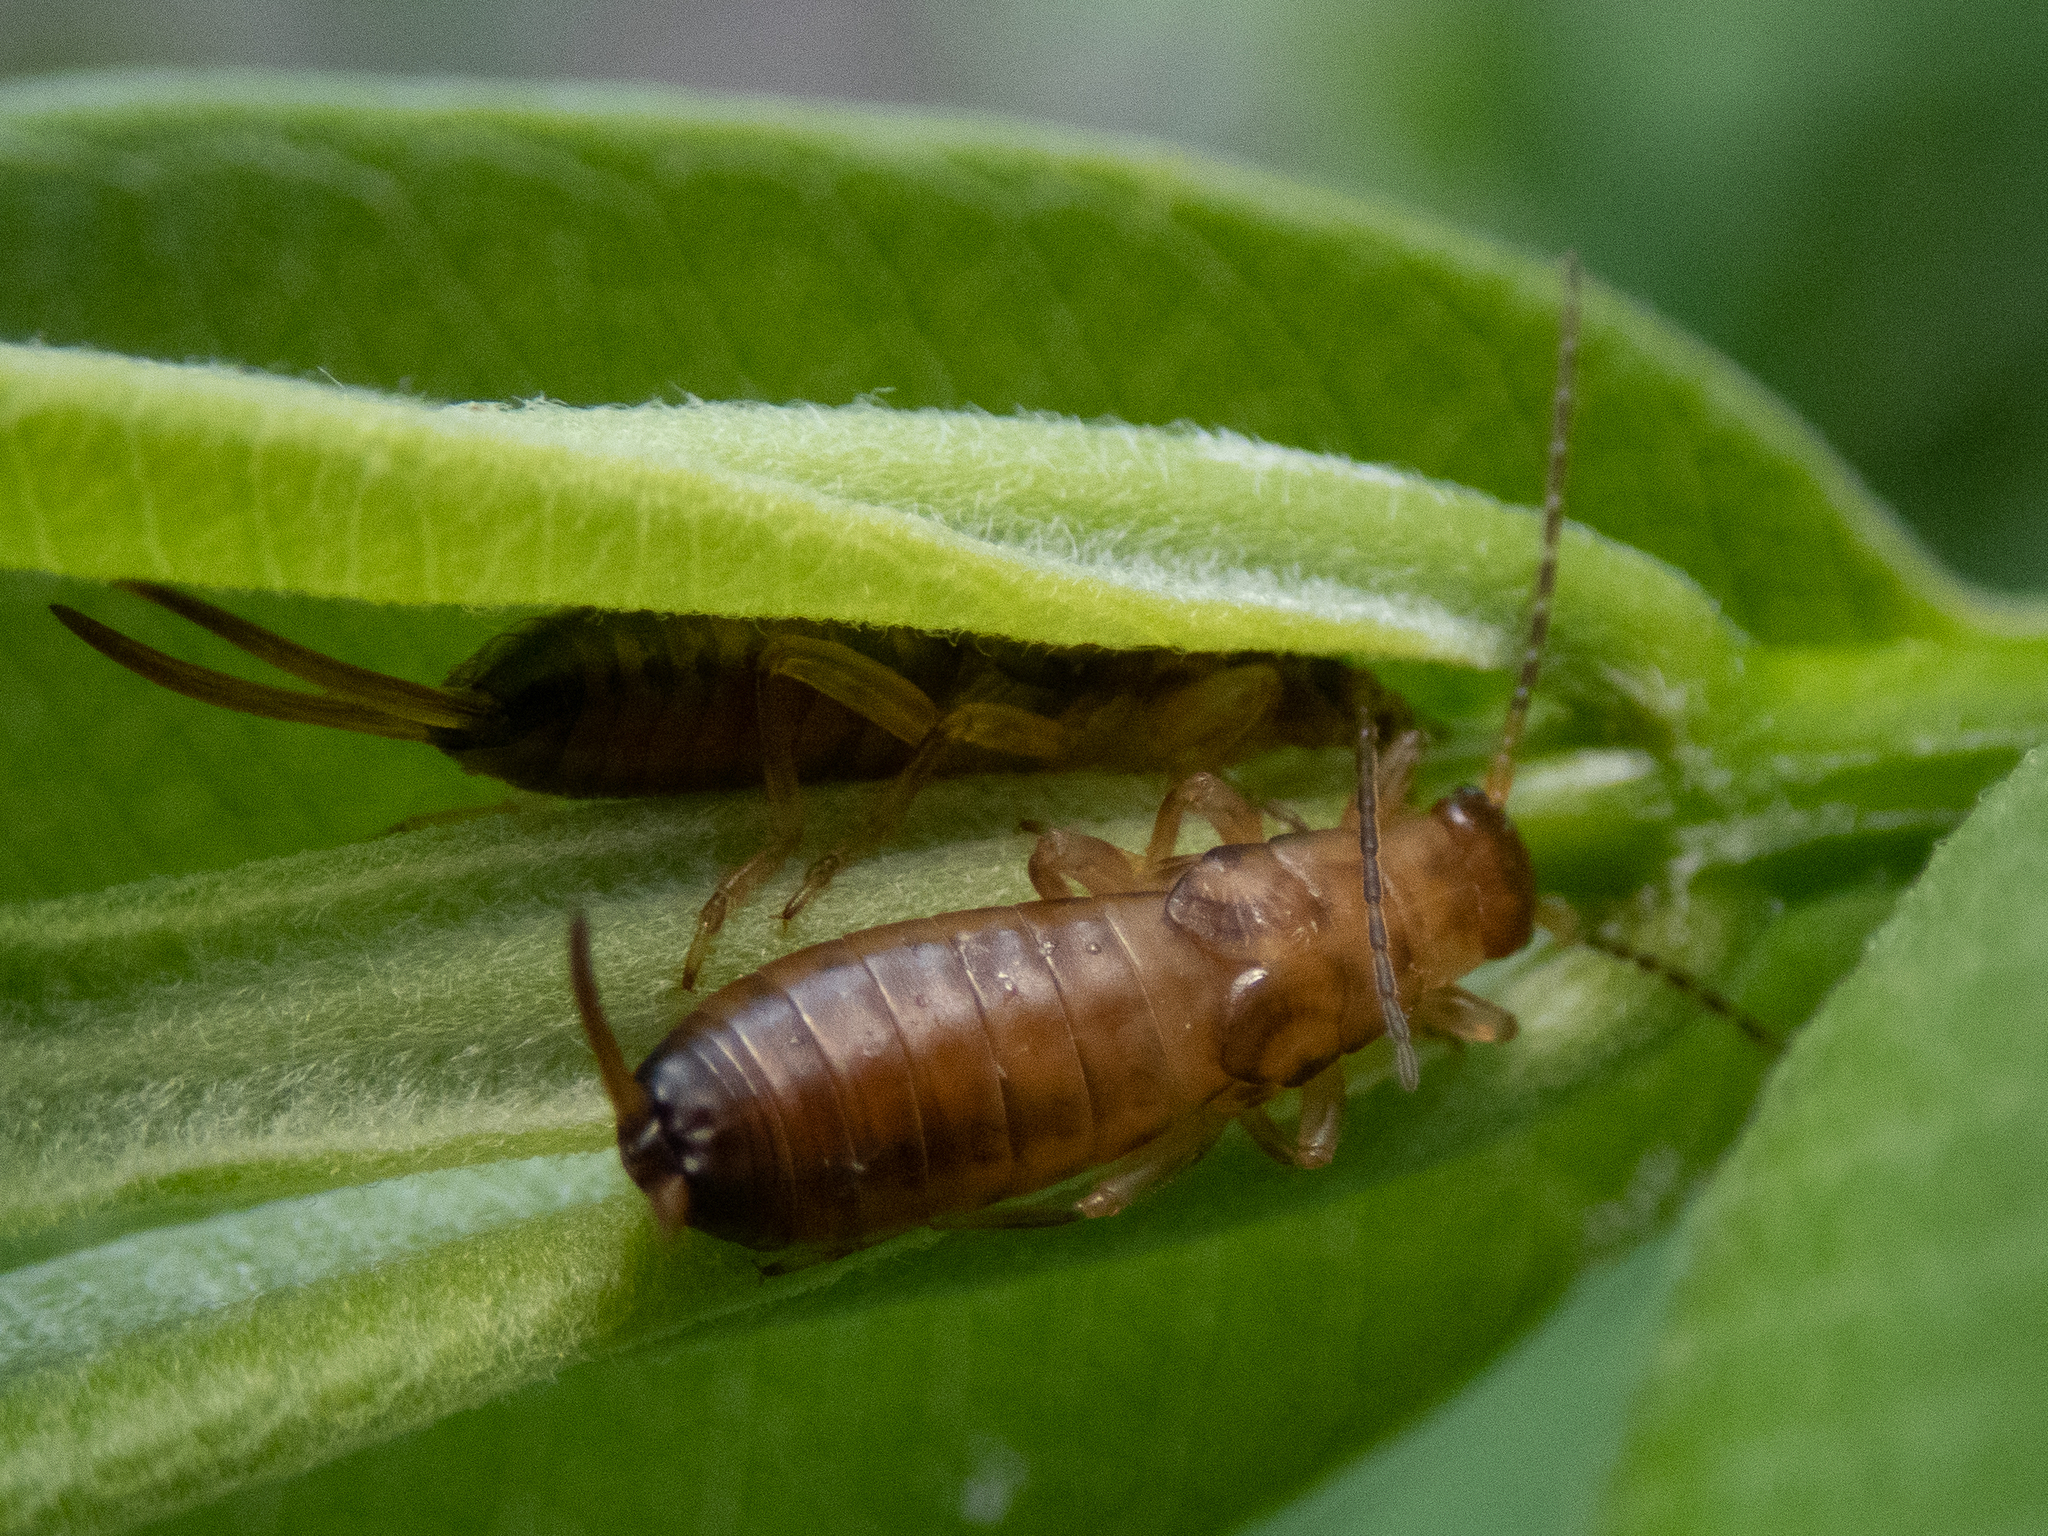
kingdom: Animalia
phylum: Arthropoda
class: Insecta
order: Dermaptera
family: Forficulidae
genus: Forficula
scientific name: Forficula
